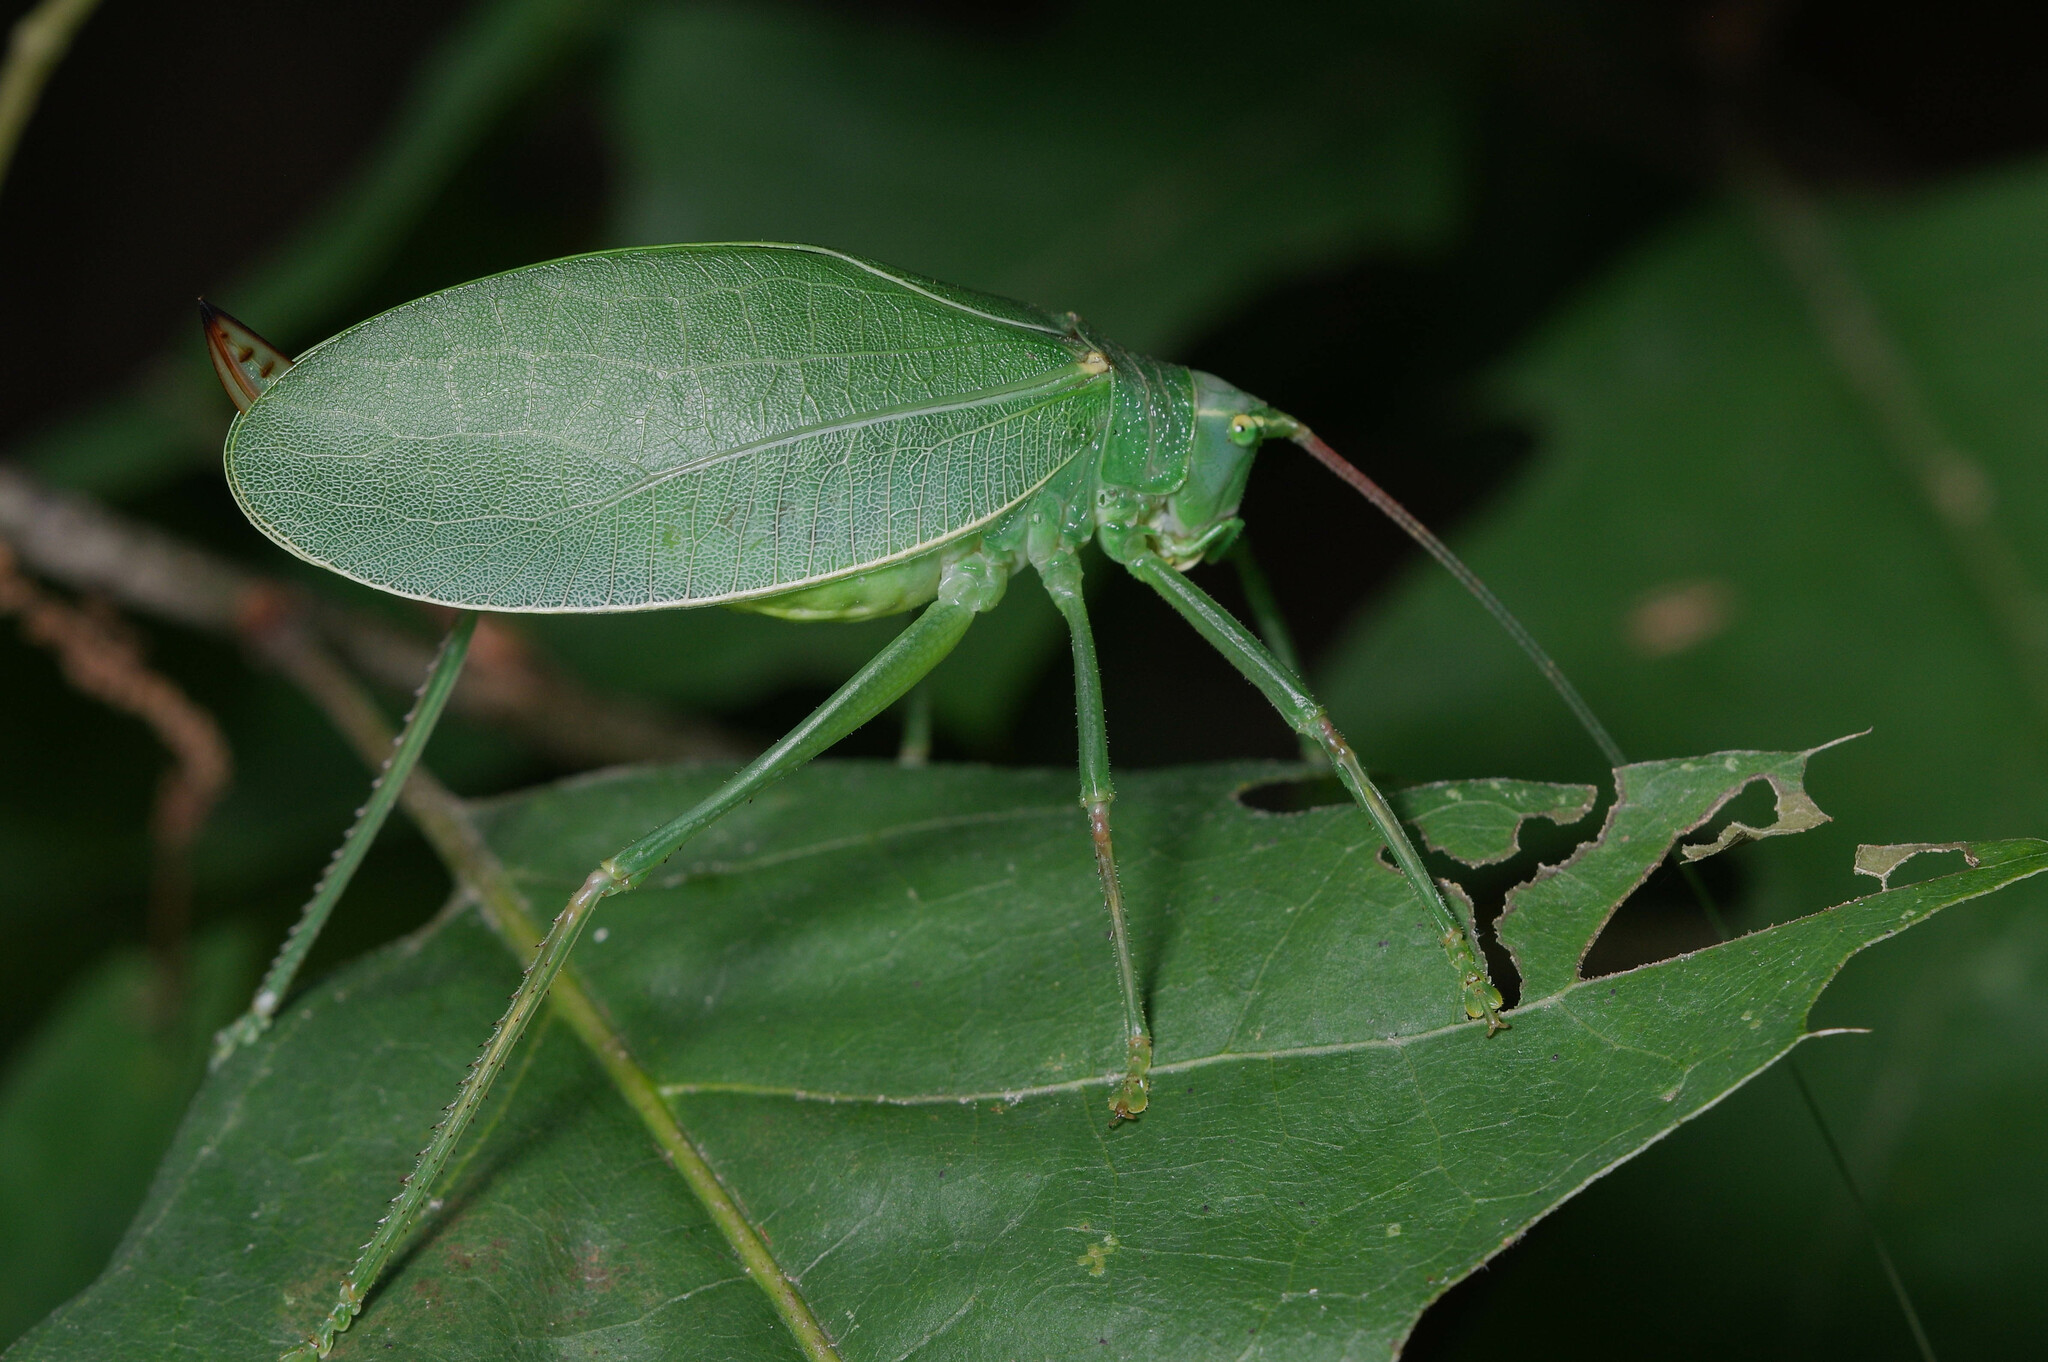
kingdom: Animalia
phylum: Arthropoda
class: Insecta
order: Orthoptera
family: Tettigoniidae
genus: Pterophylla
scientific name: Pterophylla camellifolia
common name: Common true katydid
